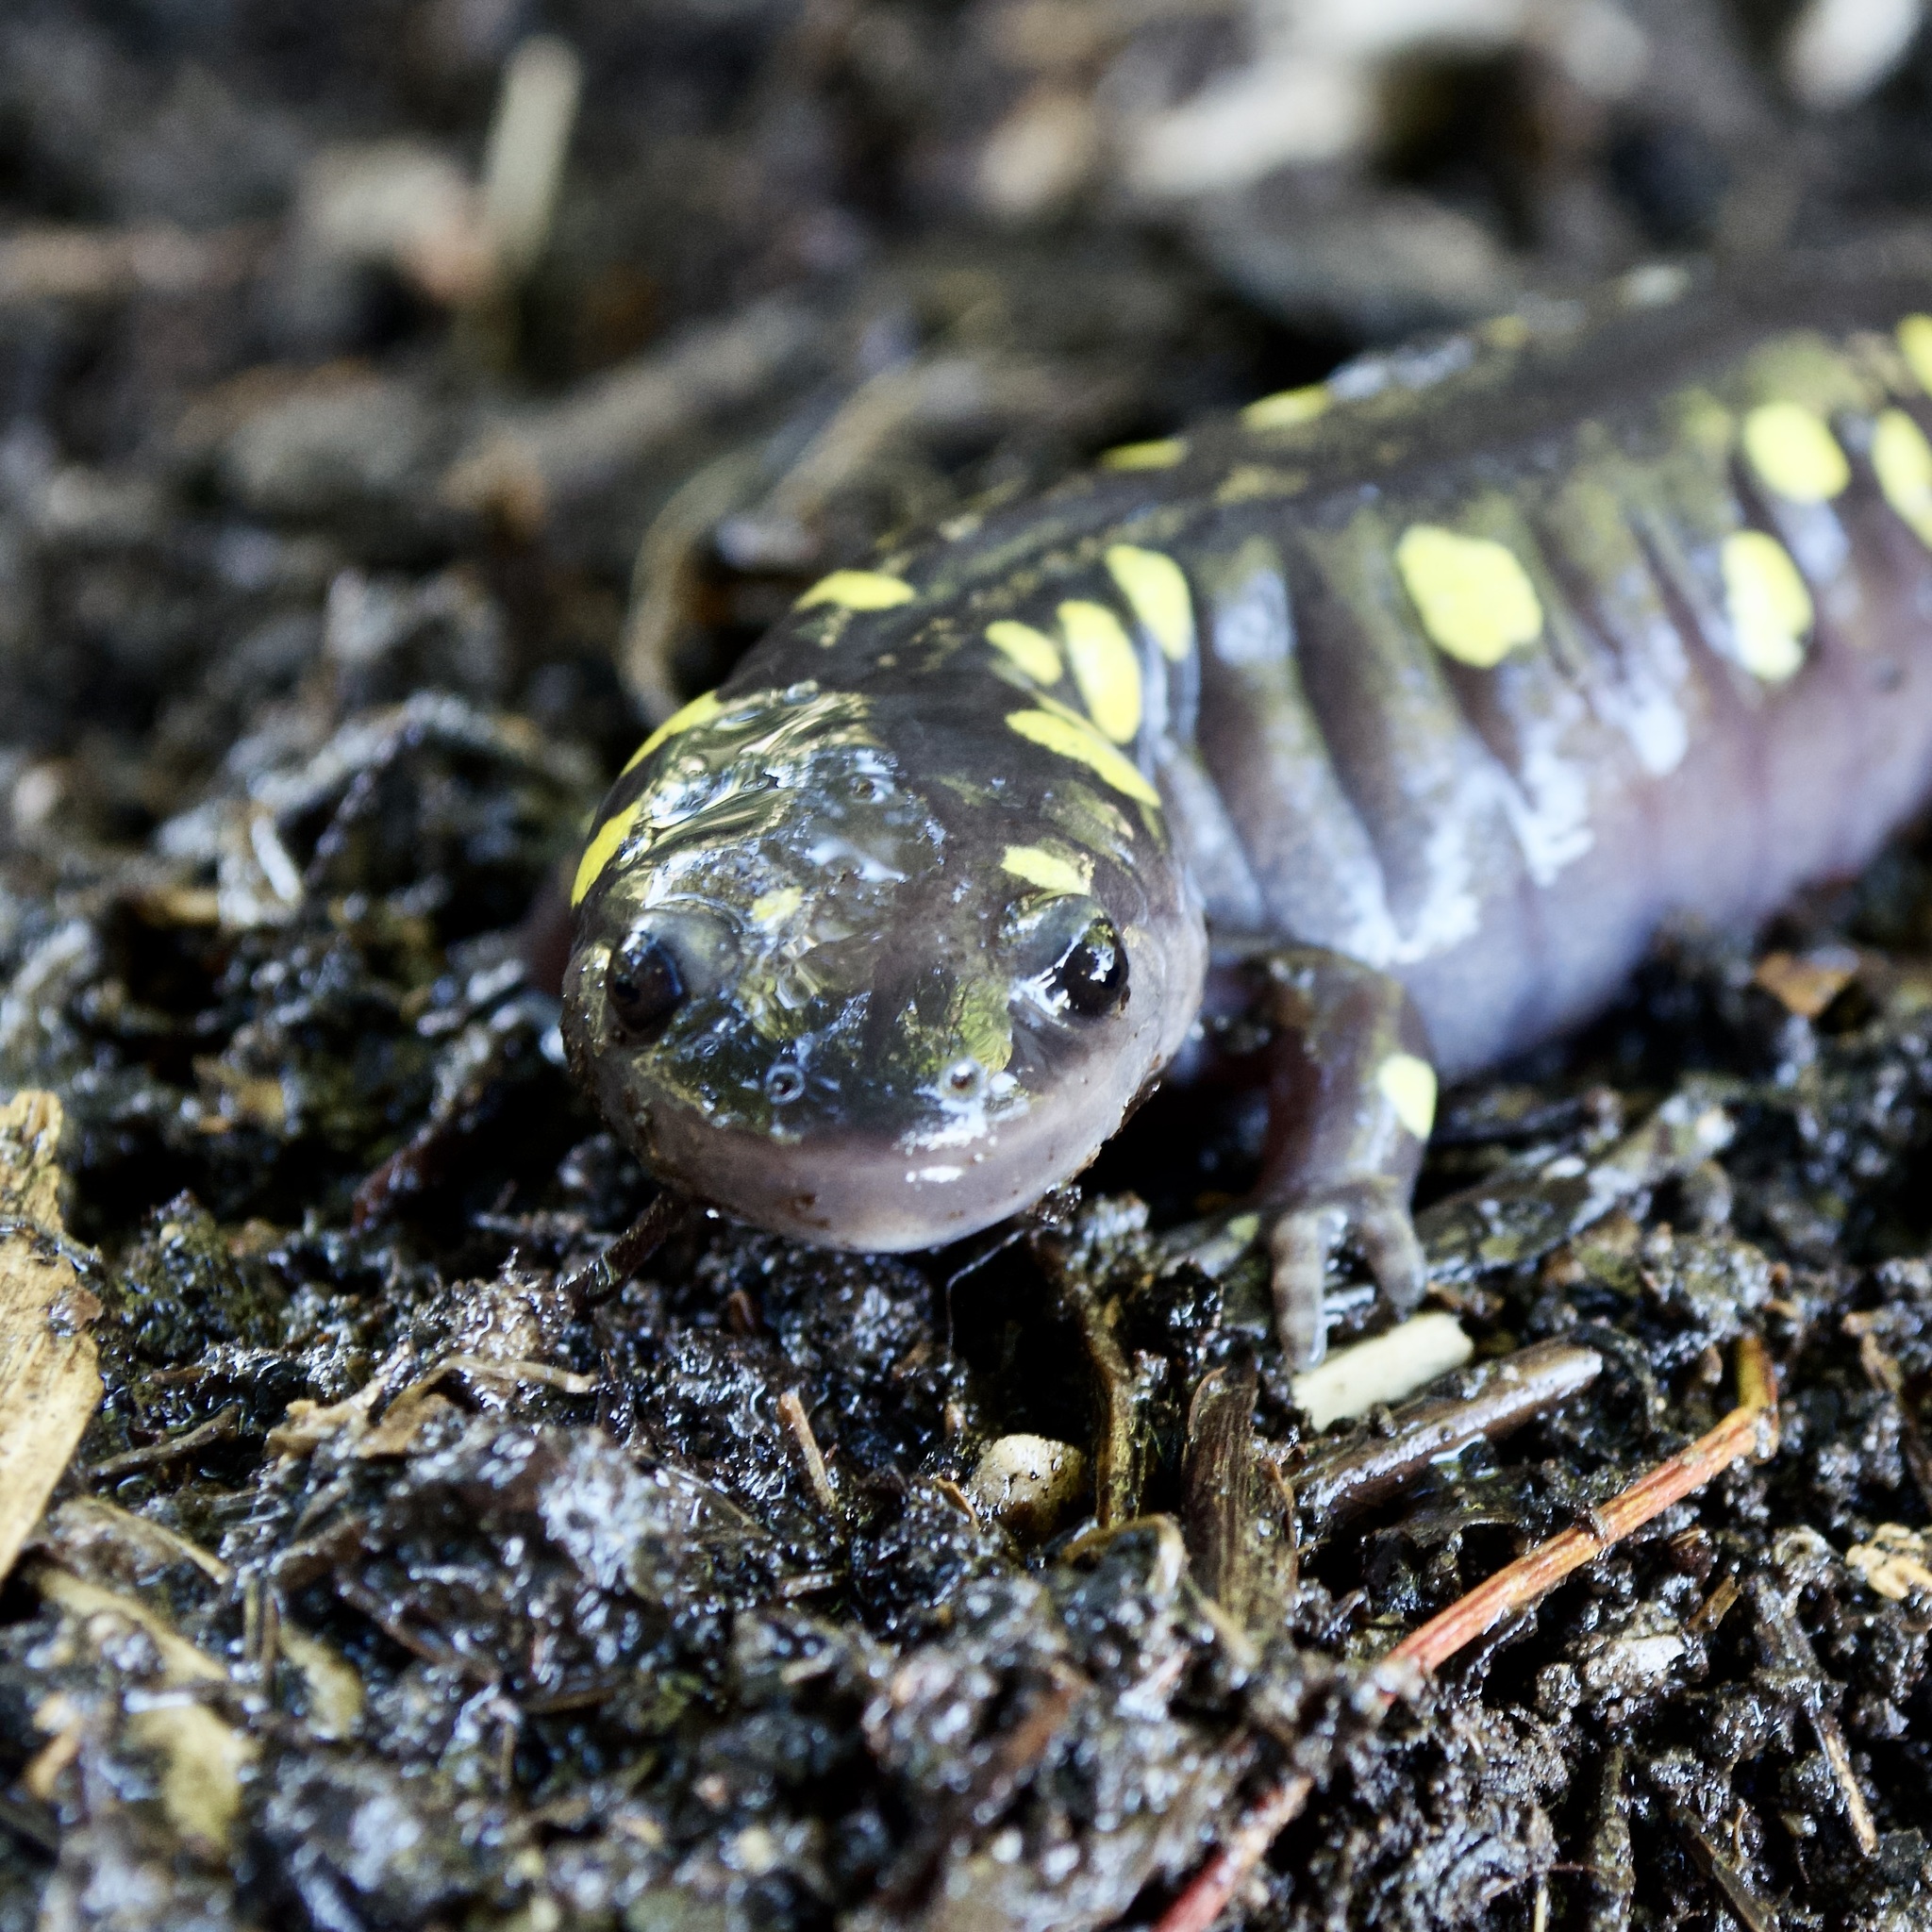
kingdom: Animalia
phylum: Chordata
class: Amphibia
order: Caudata
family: Ambystomatidae
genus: Ambystoma
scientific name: Ambystoma maculatum
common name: Spotted salamander
